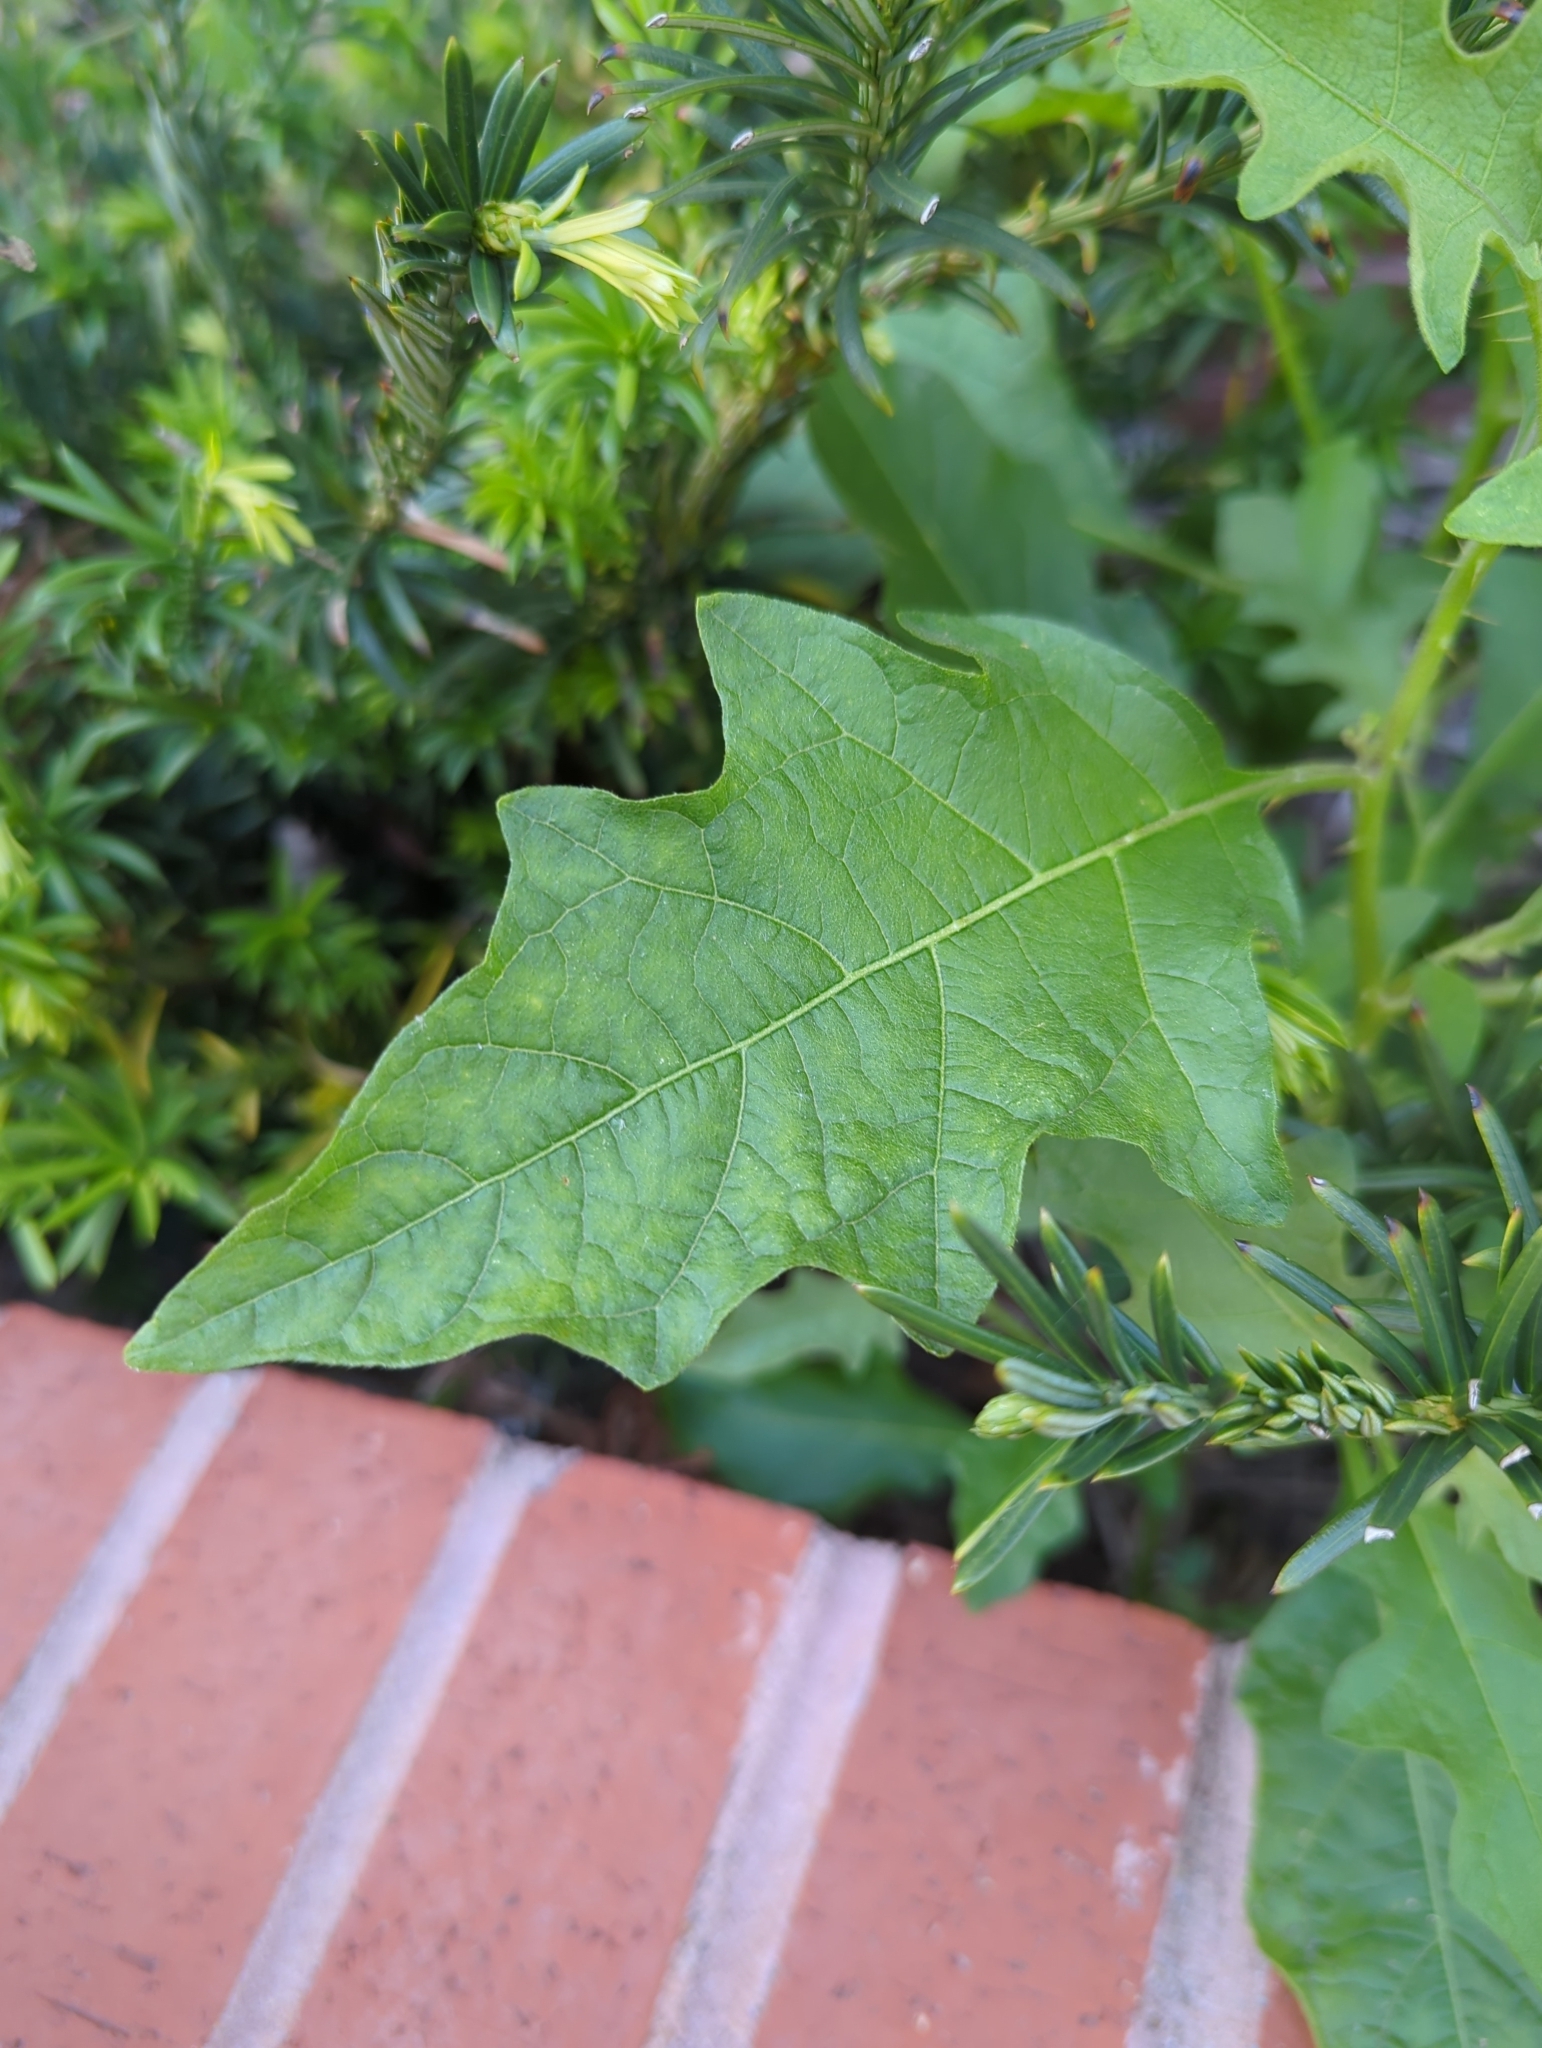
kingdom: Plantae
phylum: Tracheophyta
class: Magnoliopsida
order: Solanales
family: Solanaceae
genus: Solanum
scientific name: Solanum carolinense
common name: Horse-nettle
